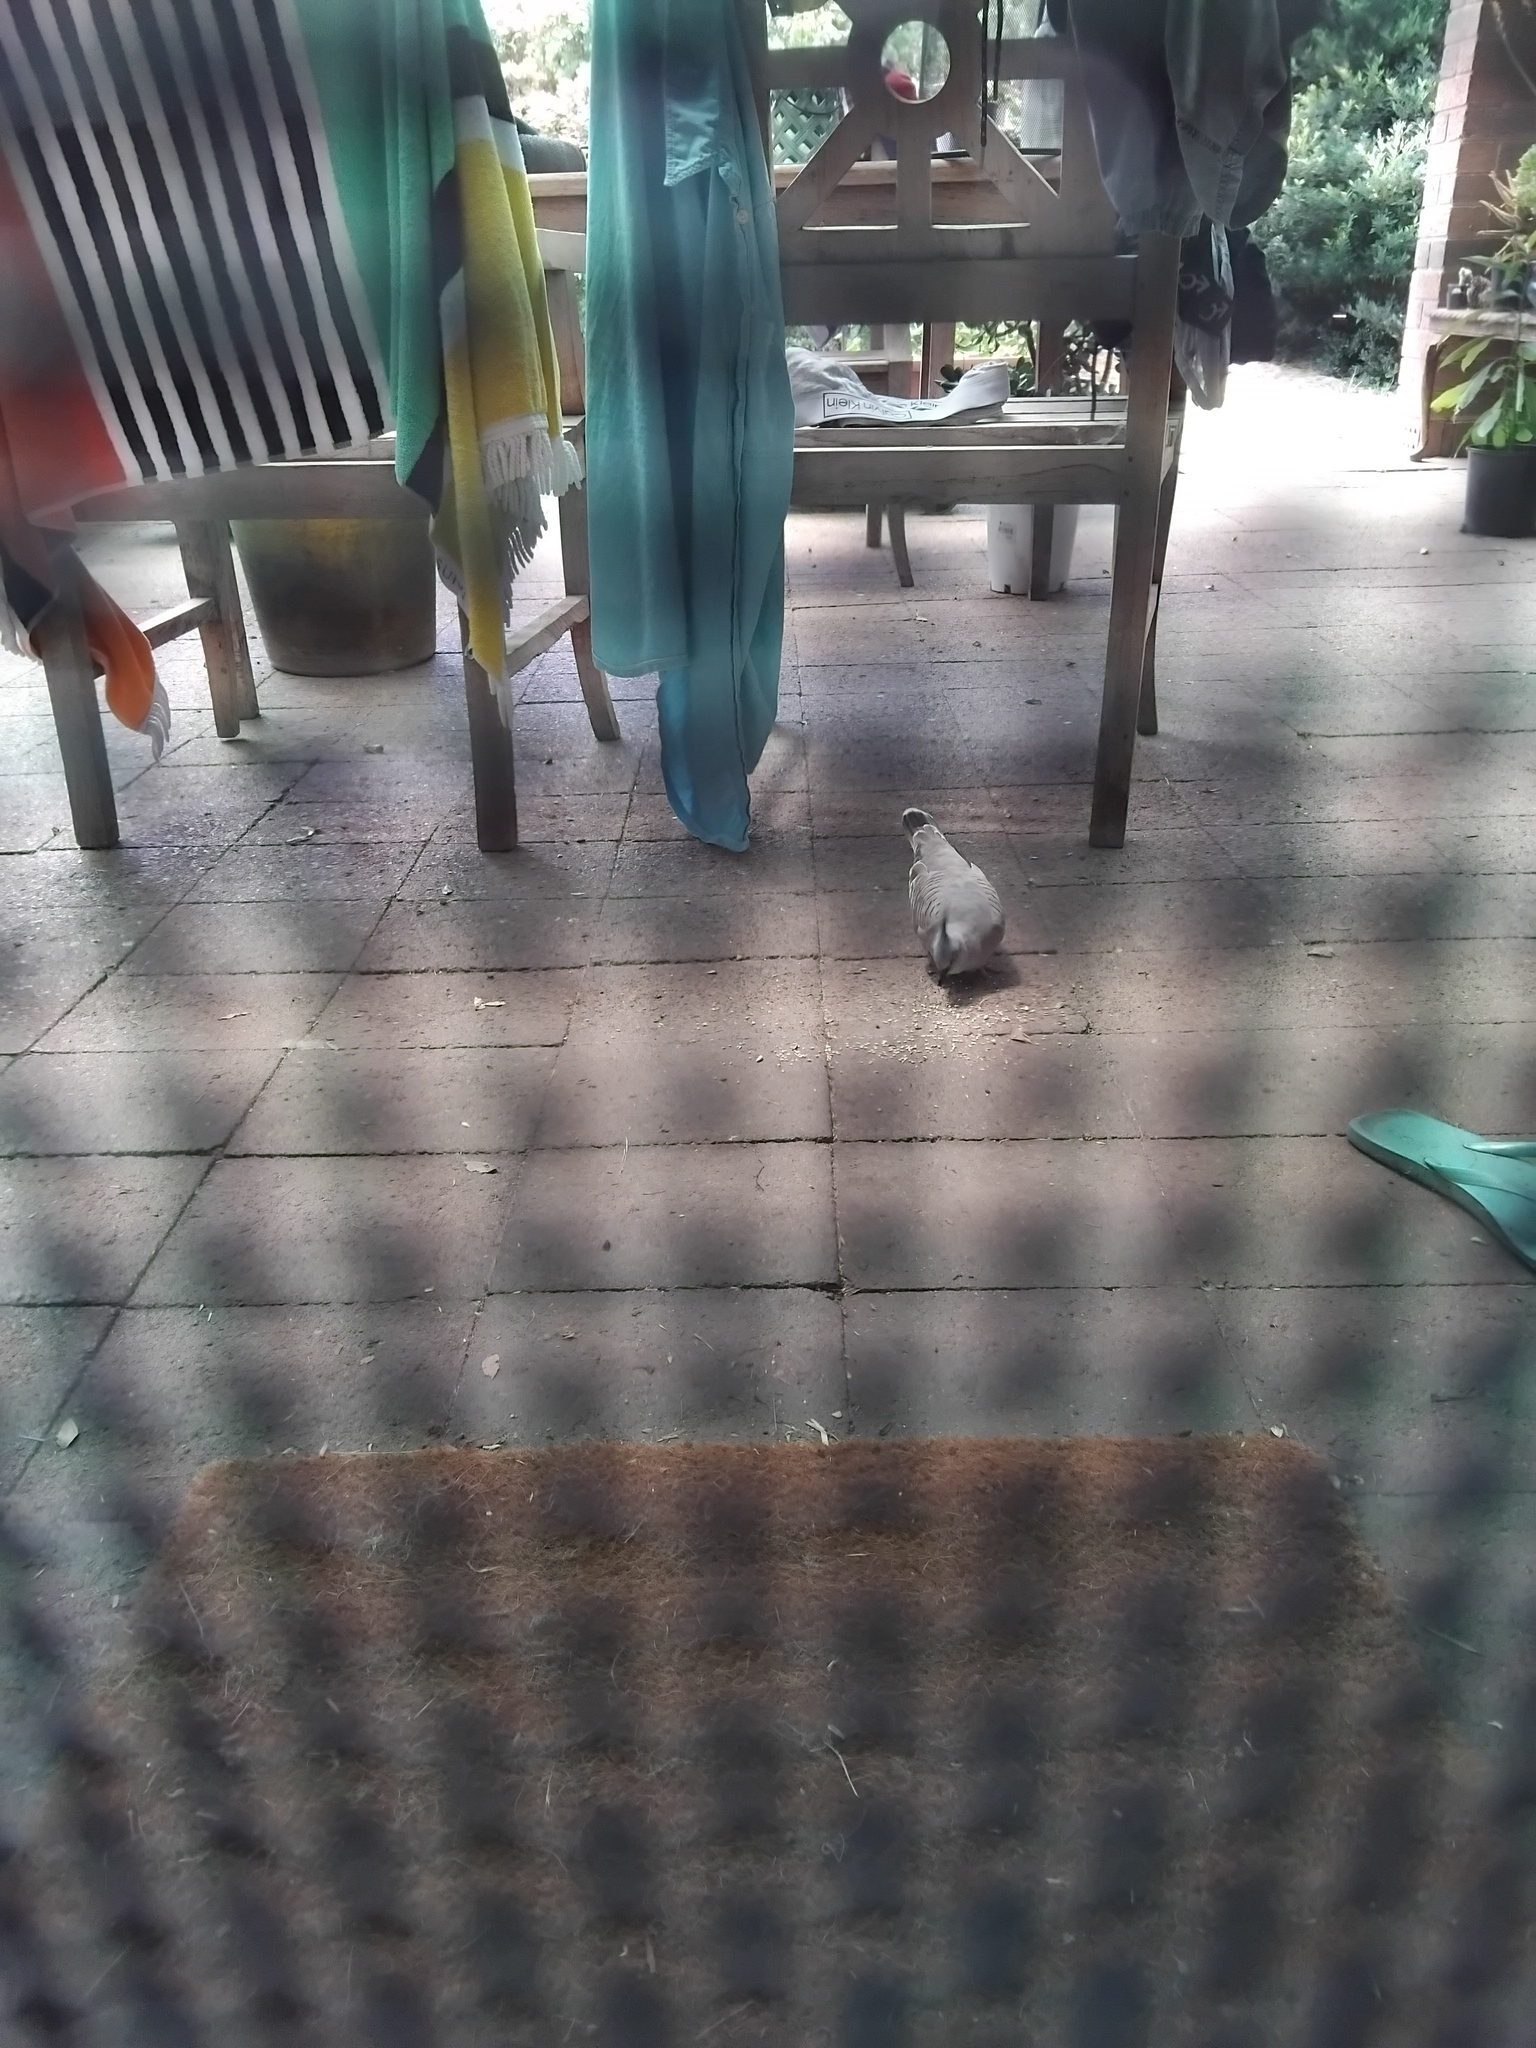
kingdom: Animalia
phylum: Chordata
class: Aves
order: Columbiformes
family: Columbidae
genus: Ocyphaps
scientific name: Ocyphaps lophotes
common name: Crested pigeon
